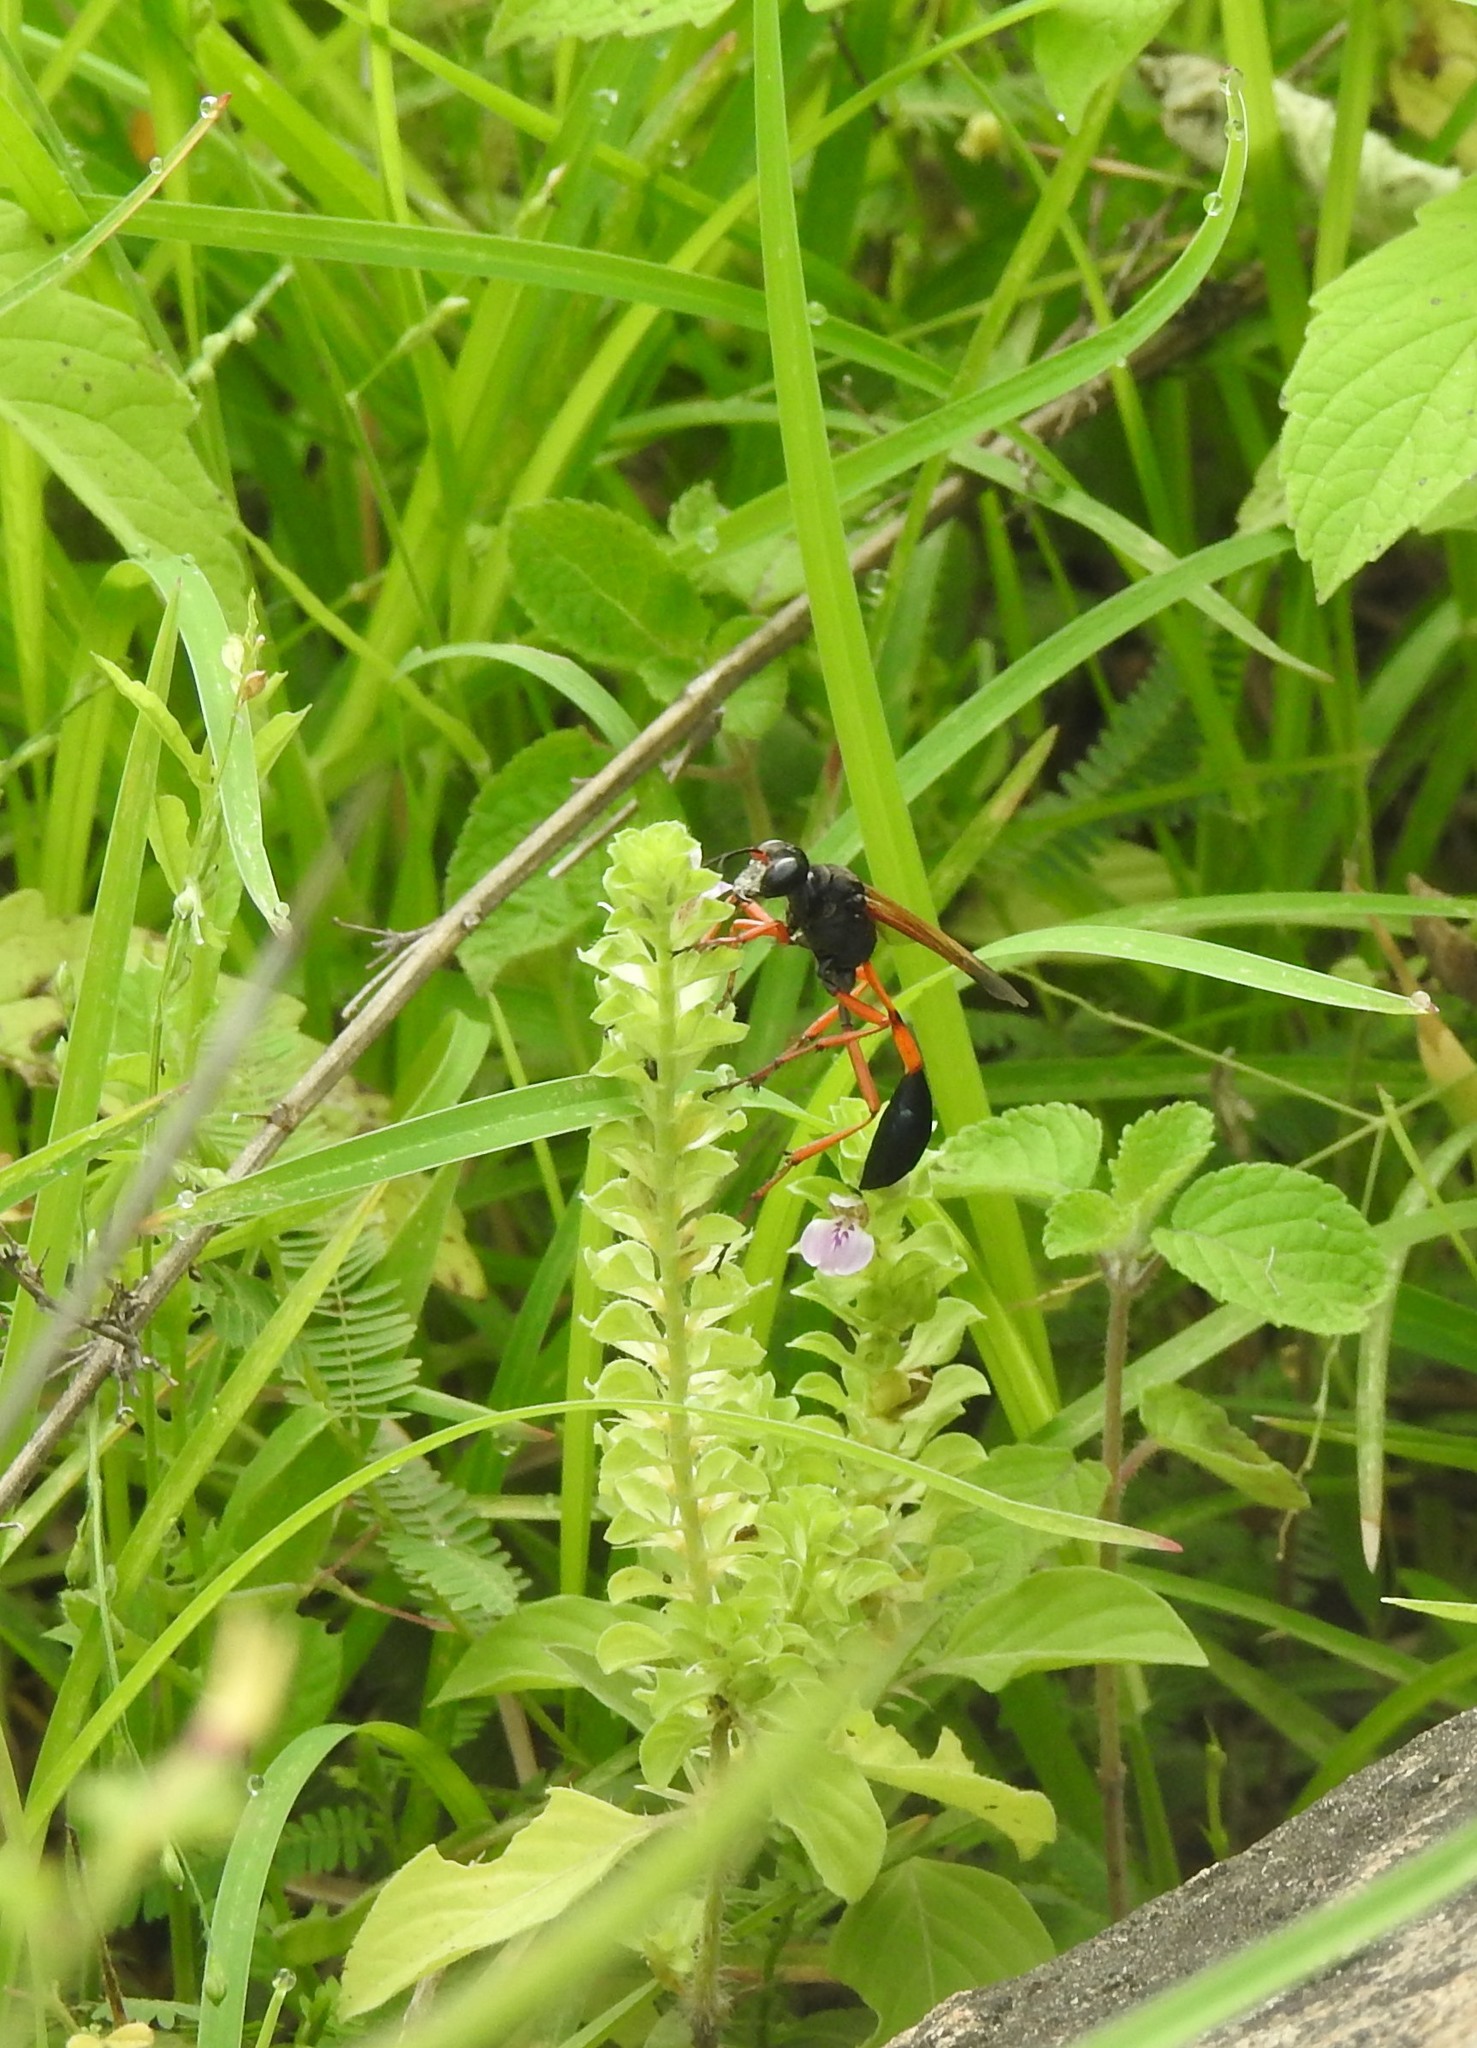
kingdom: Animalia
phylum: Arthropoda
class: Insecta
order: Hymenoptera
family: Sphecidae
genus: Ammophila
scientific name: Ammophila clavus
